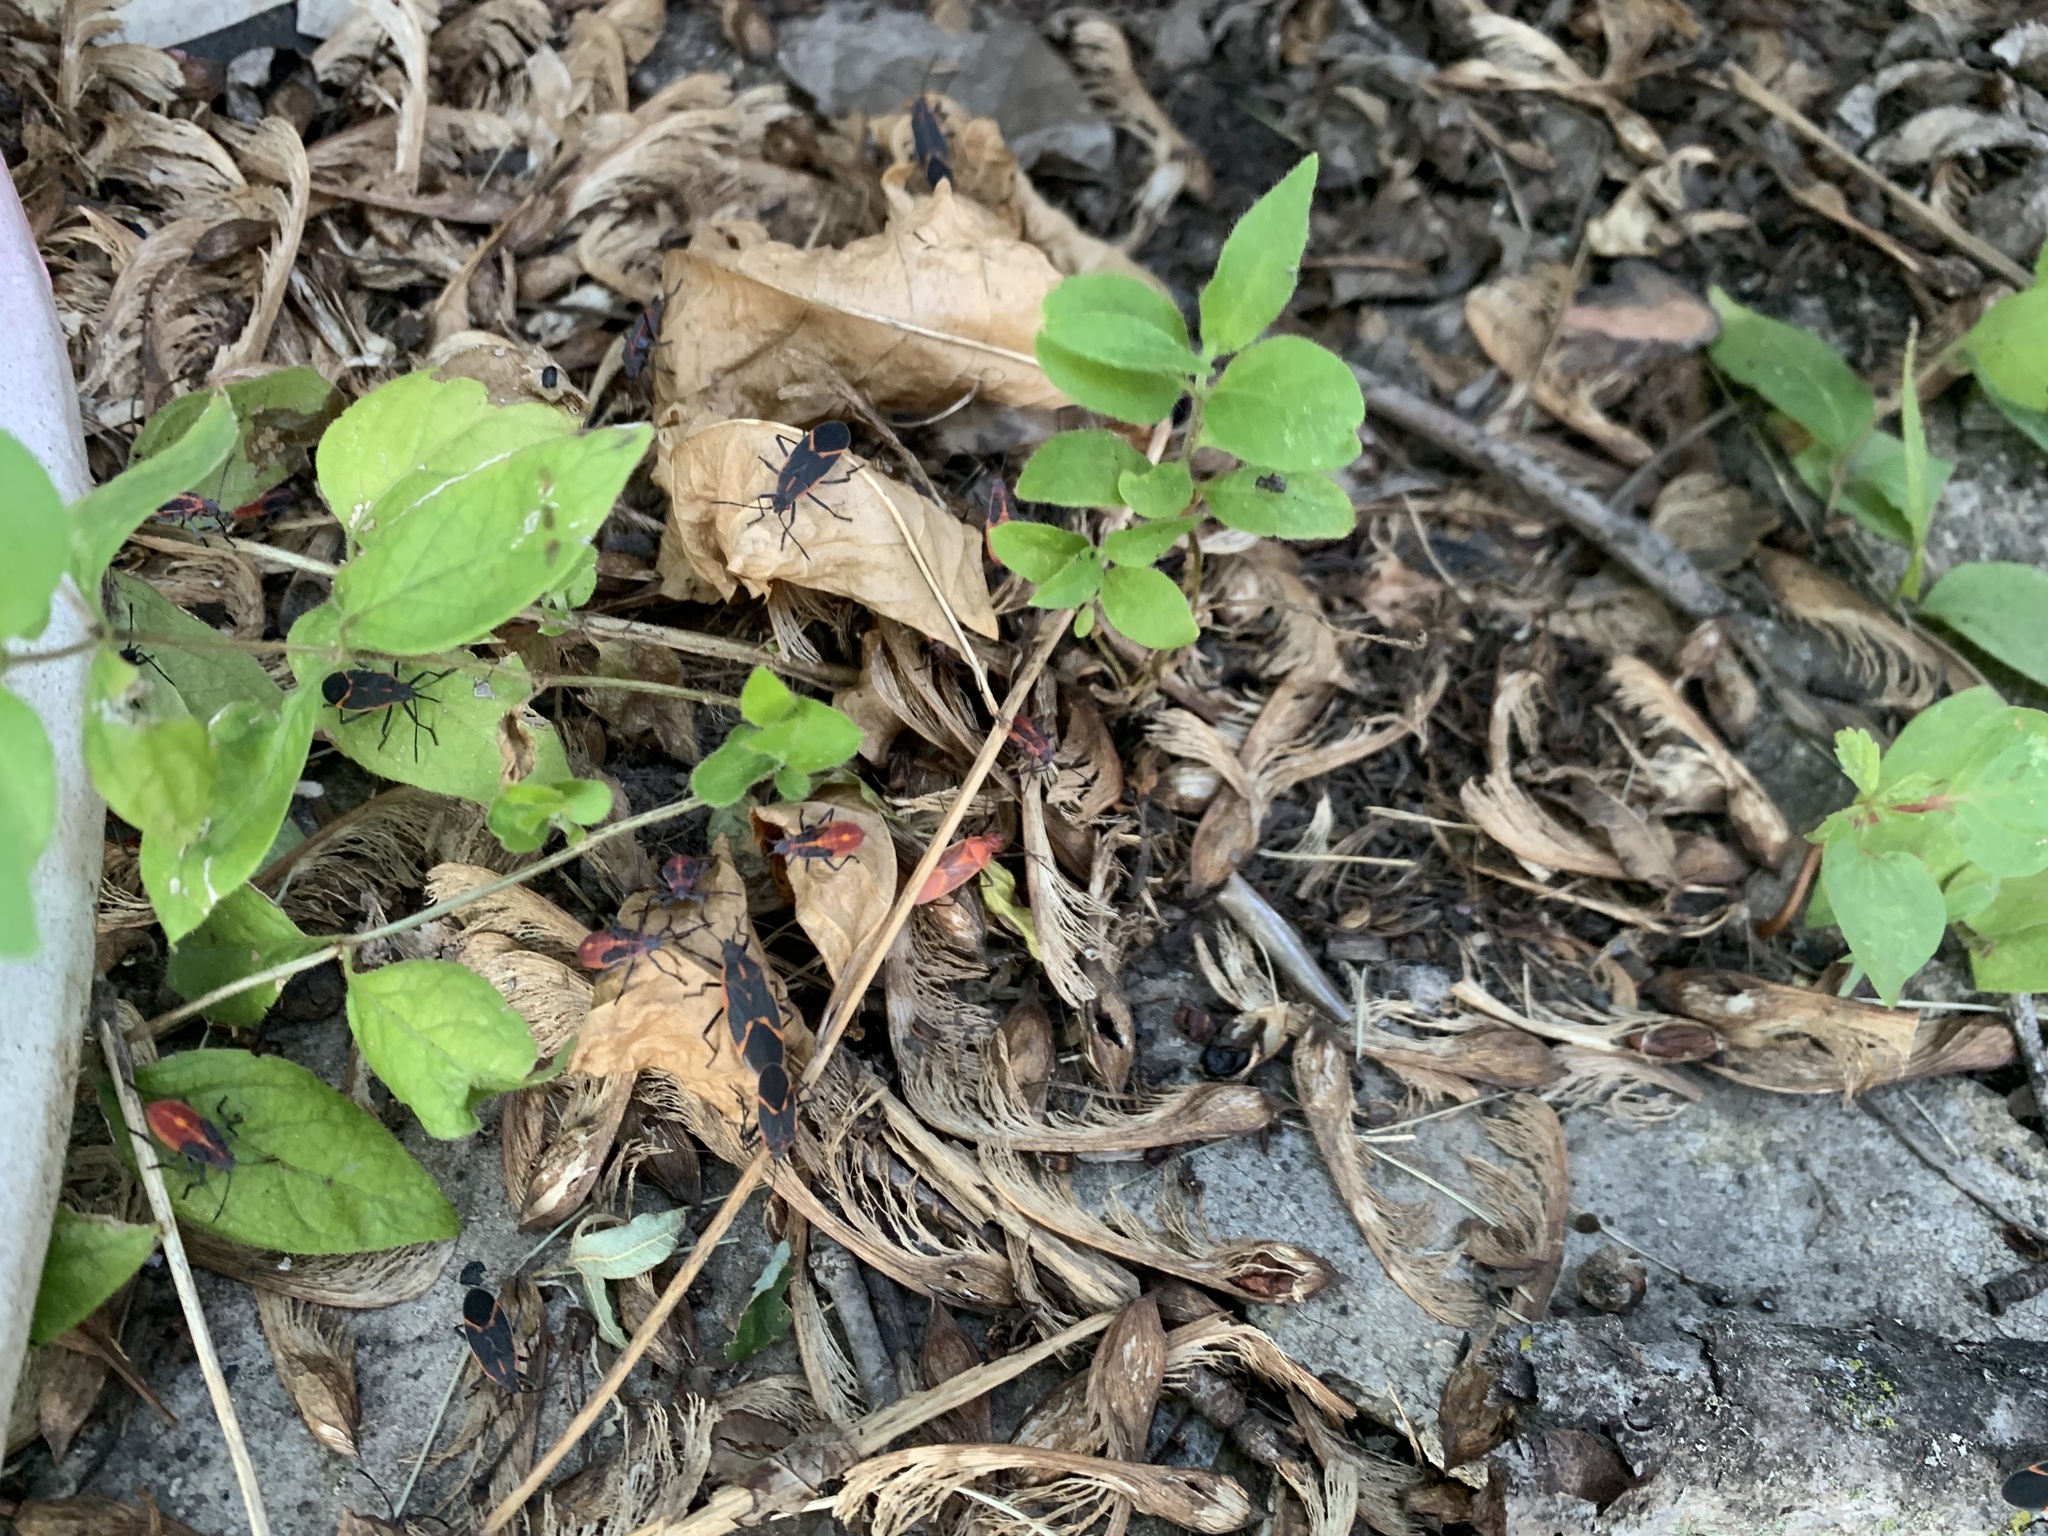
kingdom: Animalia
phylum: Arthropoda
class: Insecta
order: Hemiptera
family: Rhopalidae
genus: Boisea
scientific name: Boisea trivittata
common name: Boxelder bug
